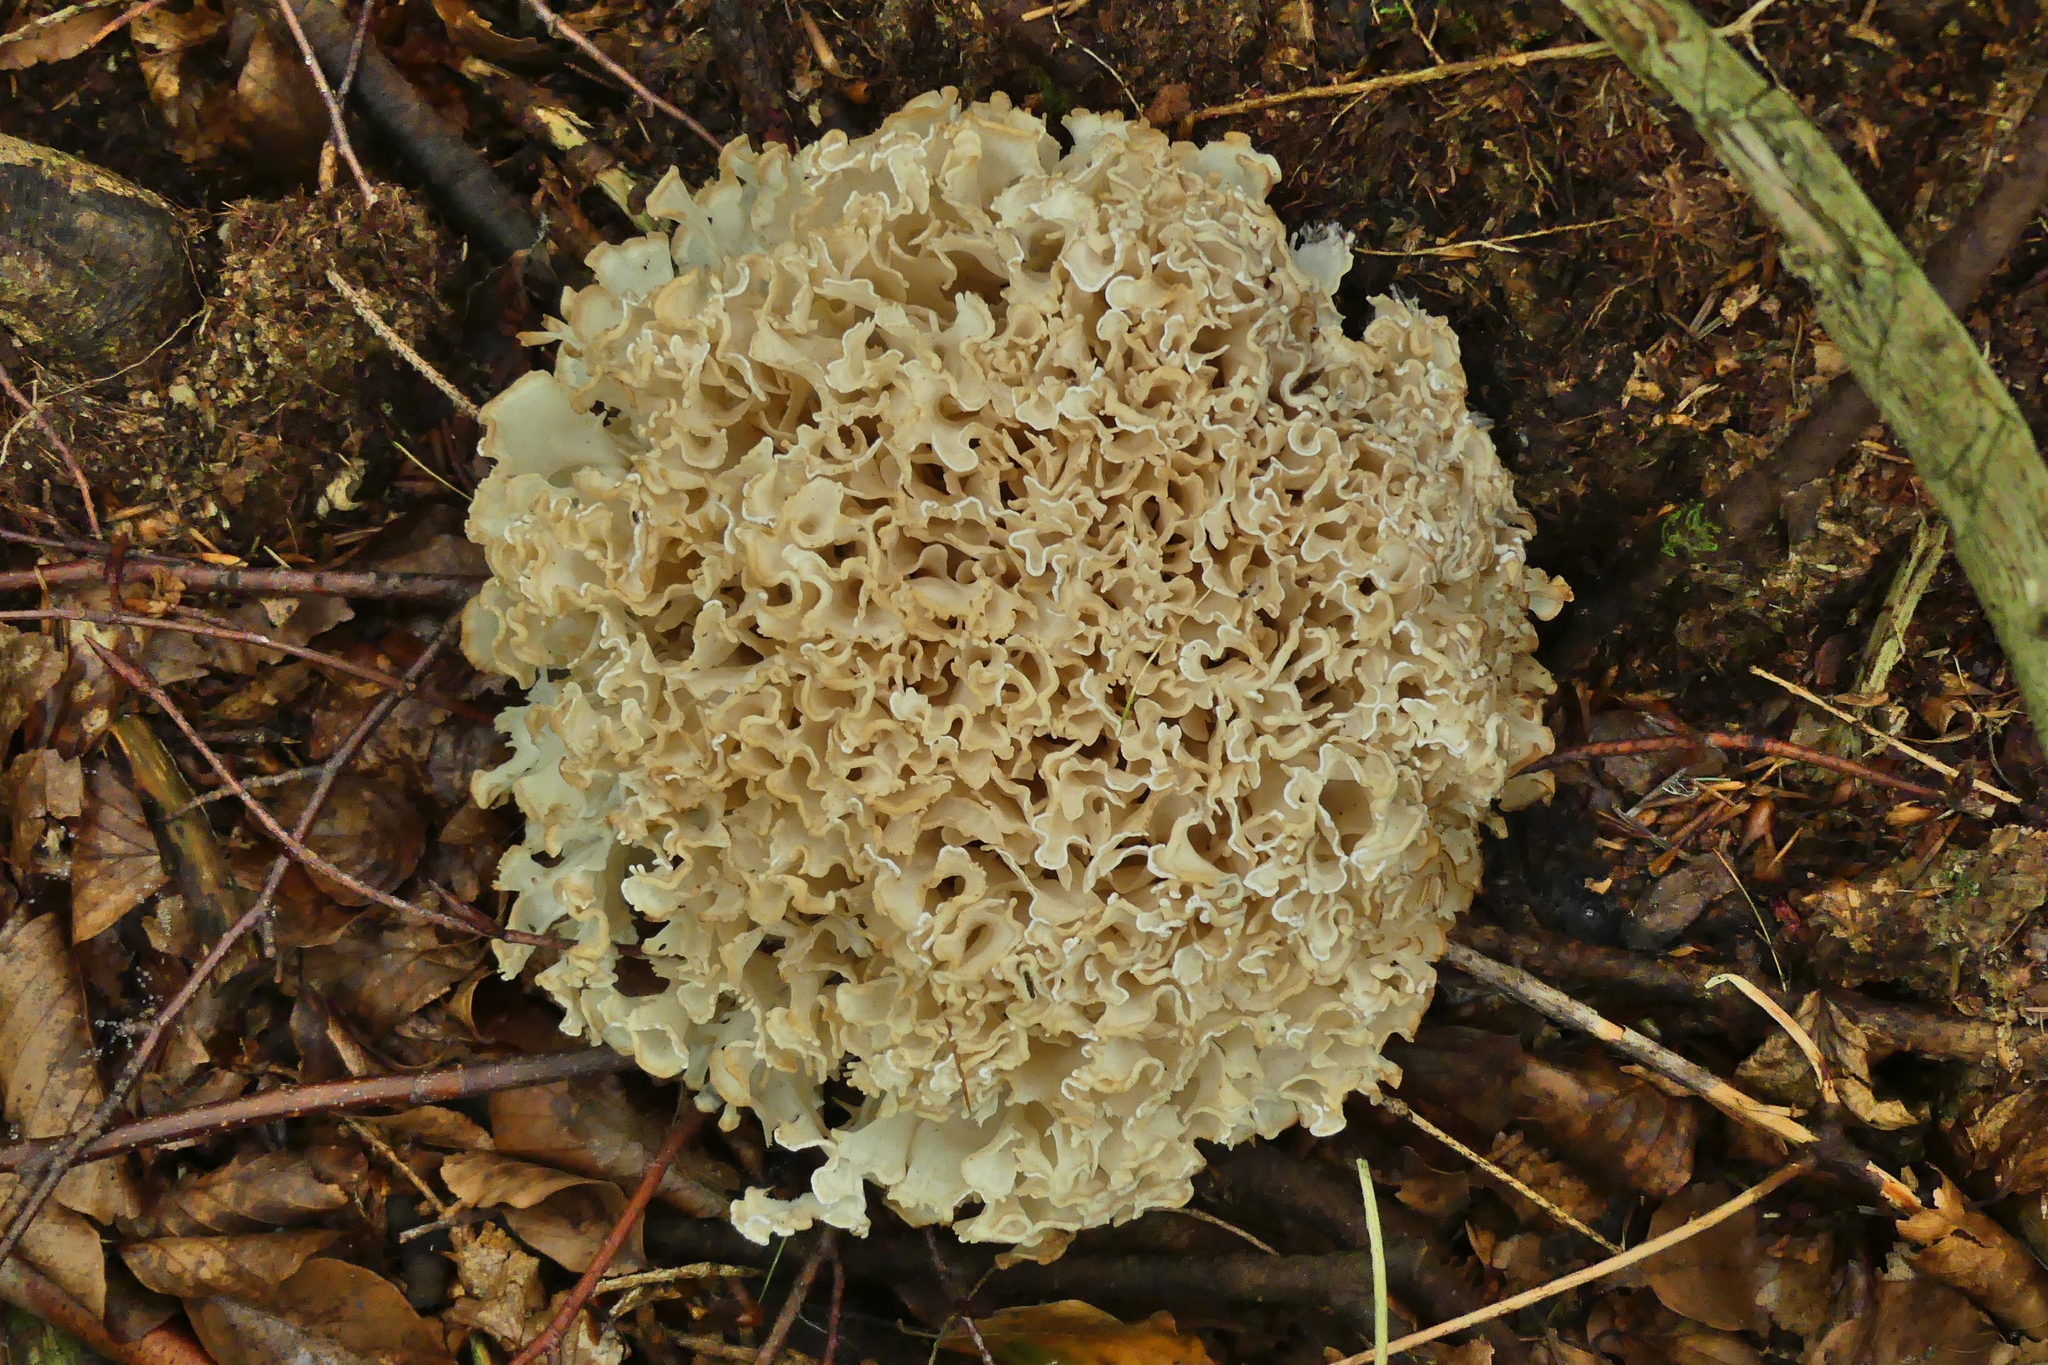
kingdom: Fungi
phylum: Basidiomycota
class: Agaricomycetes
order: Polyporales
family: Sparassidaceae
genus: Sparassis
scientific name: Sparassis brevipes
